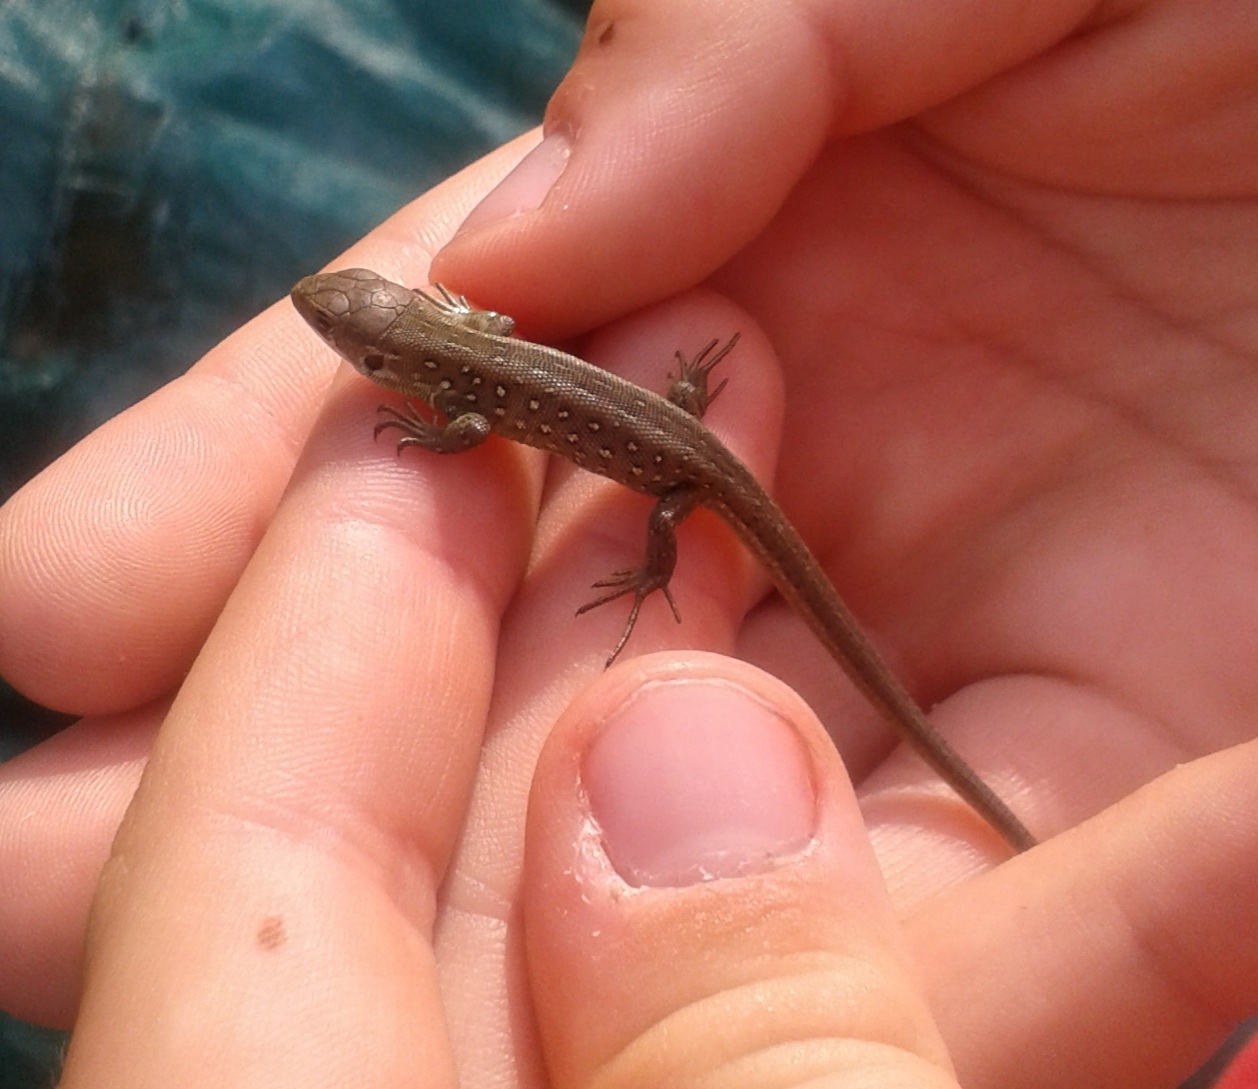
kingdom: Animalia
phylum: Chordata
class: Squamata
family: Lacertidae
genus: Lacerta
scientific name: Lacerta agilis
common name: Sand lizard
